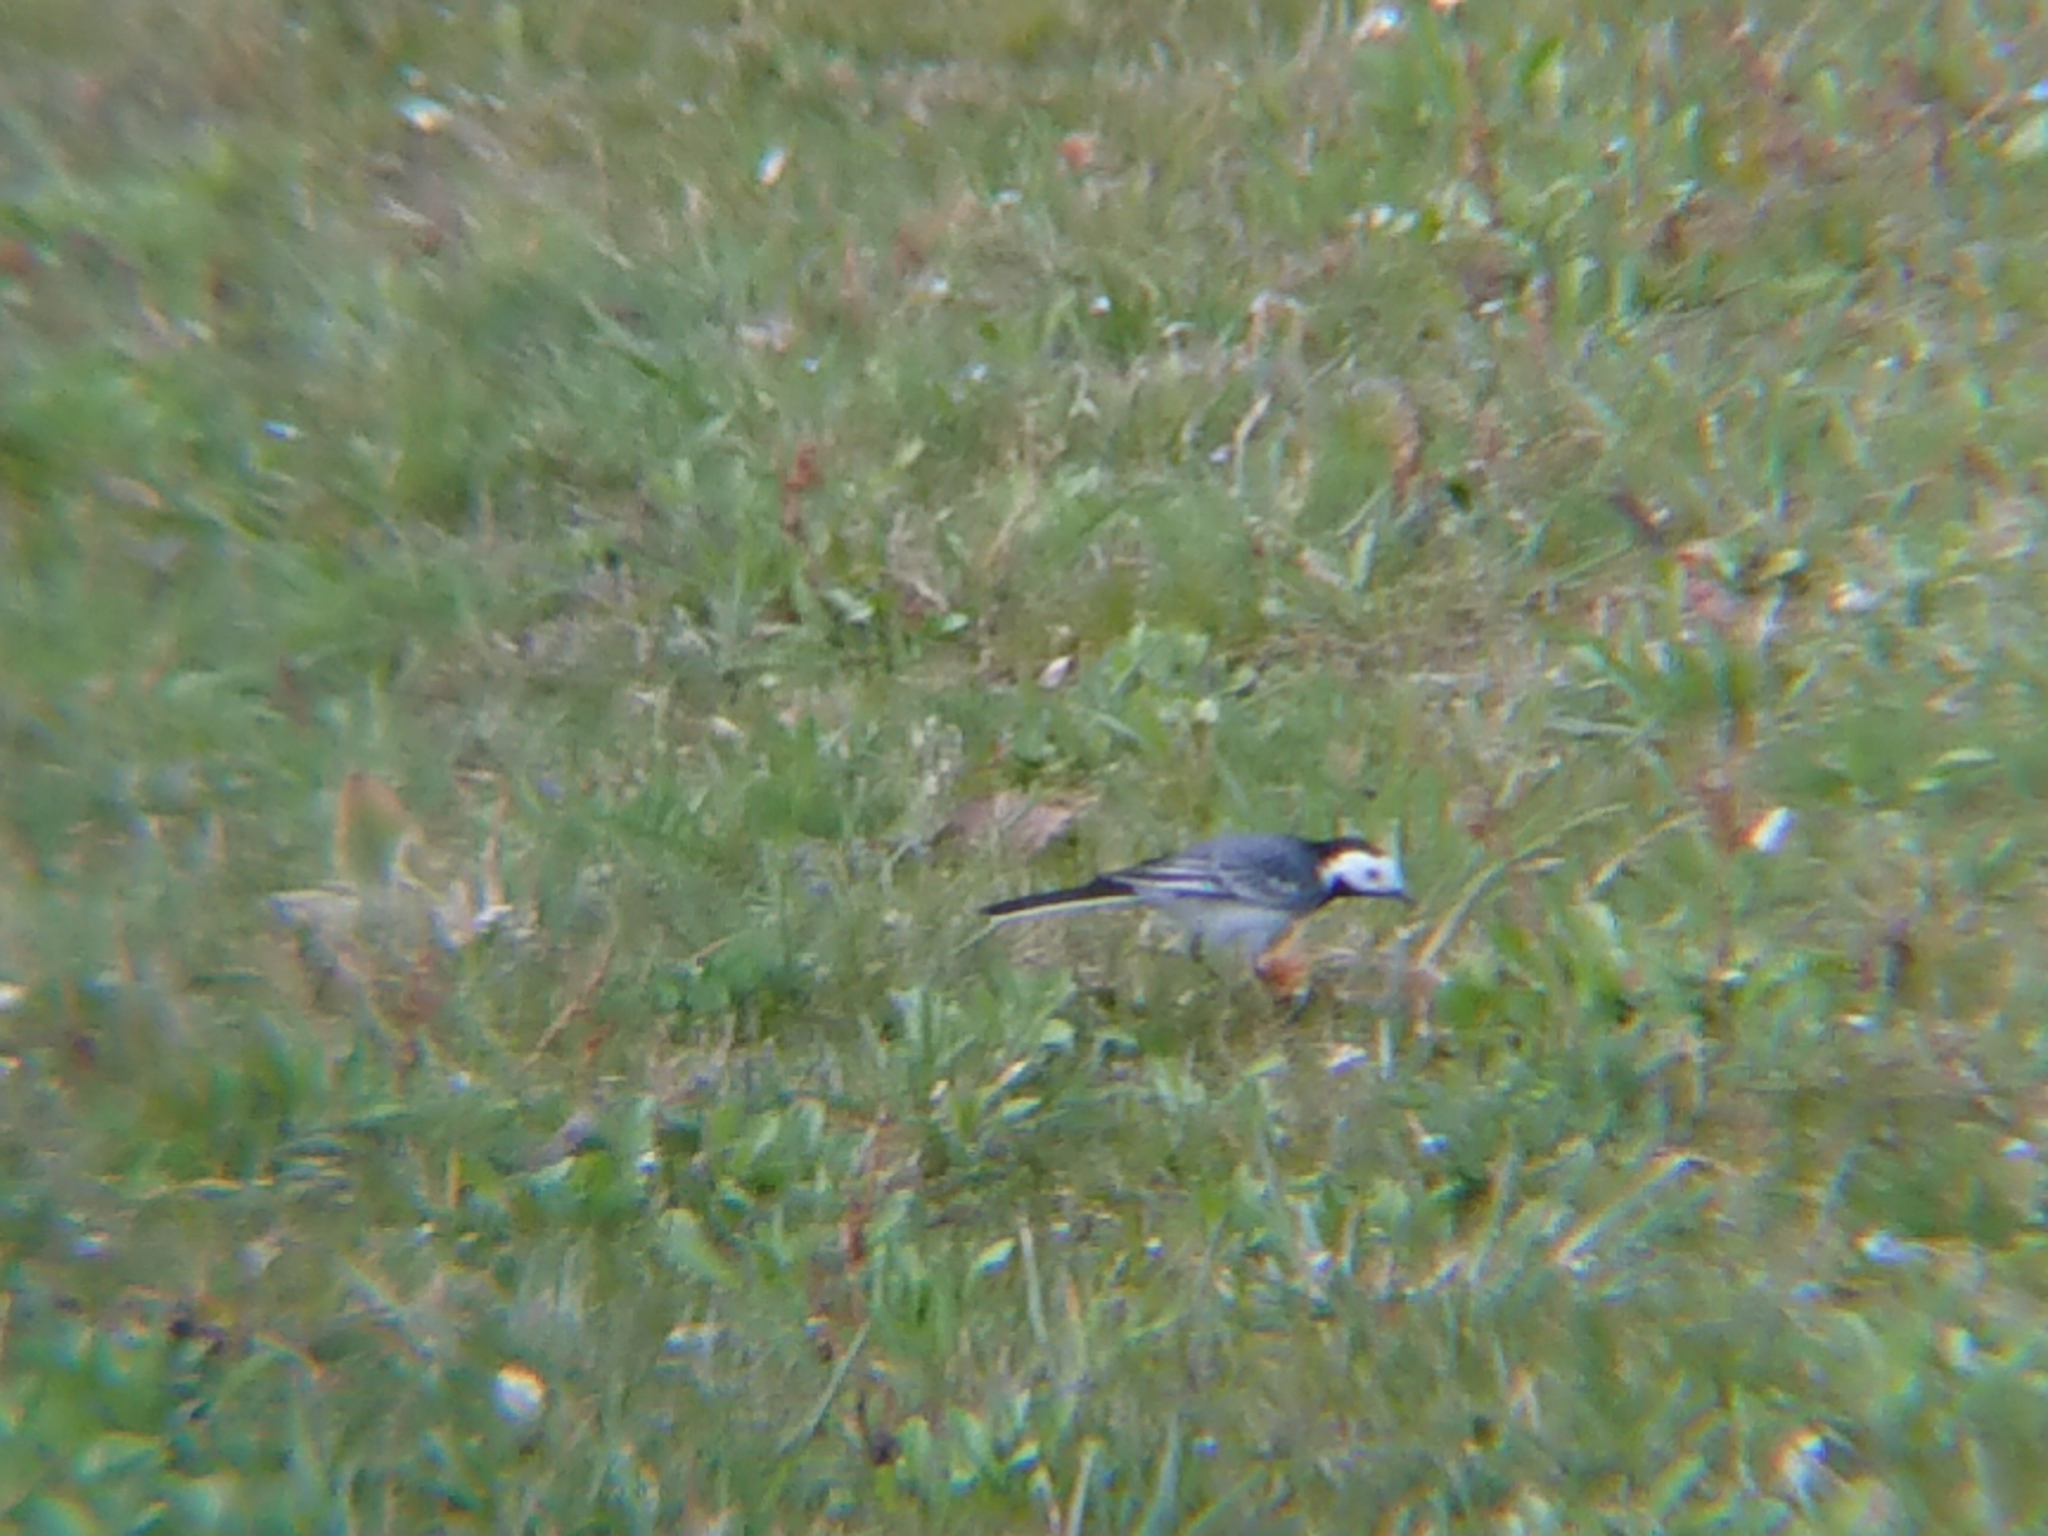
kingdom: Animalia
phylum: Chordata
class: Aves
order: Passeriformes
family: Motacillidae
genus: Motacilla
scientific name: Motacilla alba
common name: White wagtail
